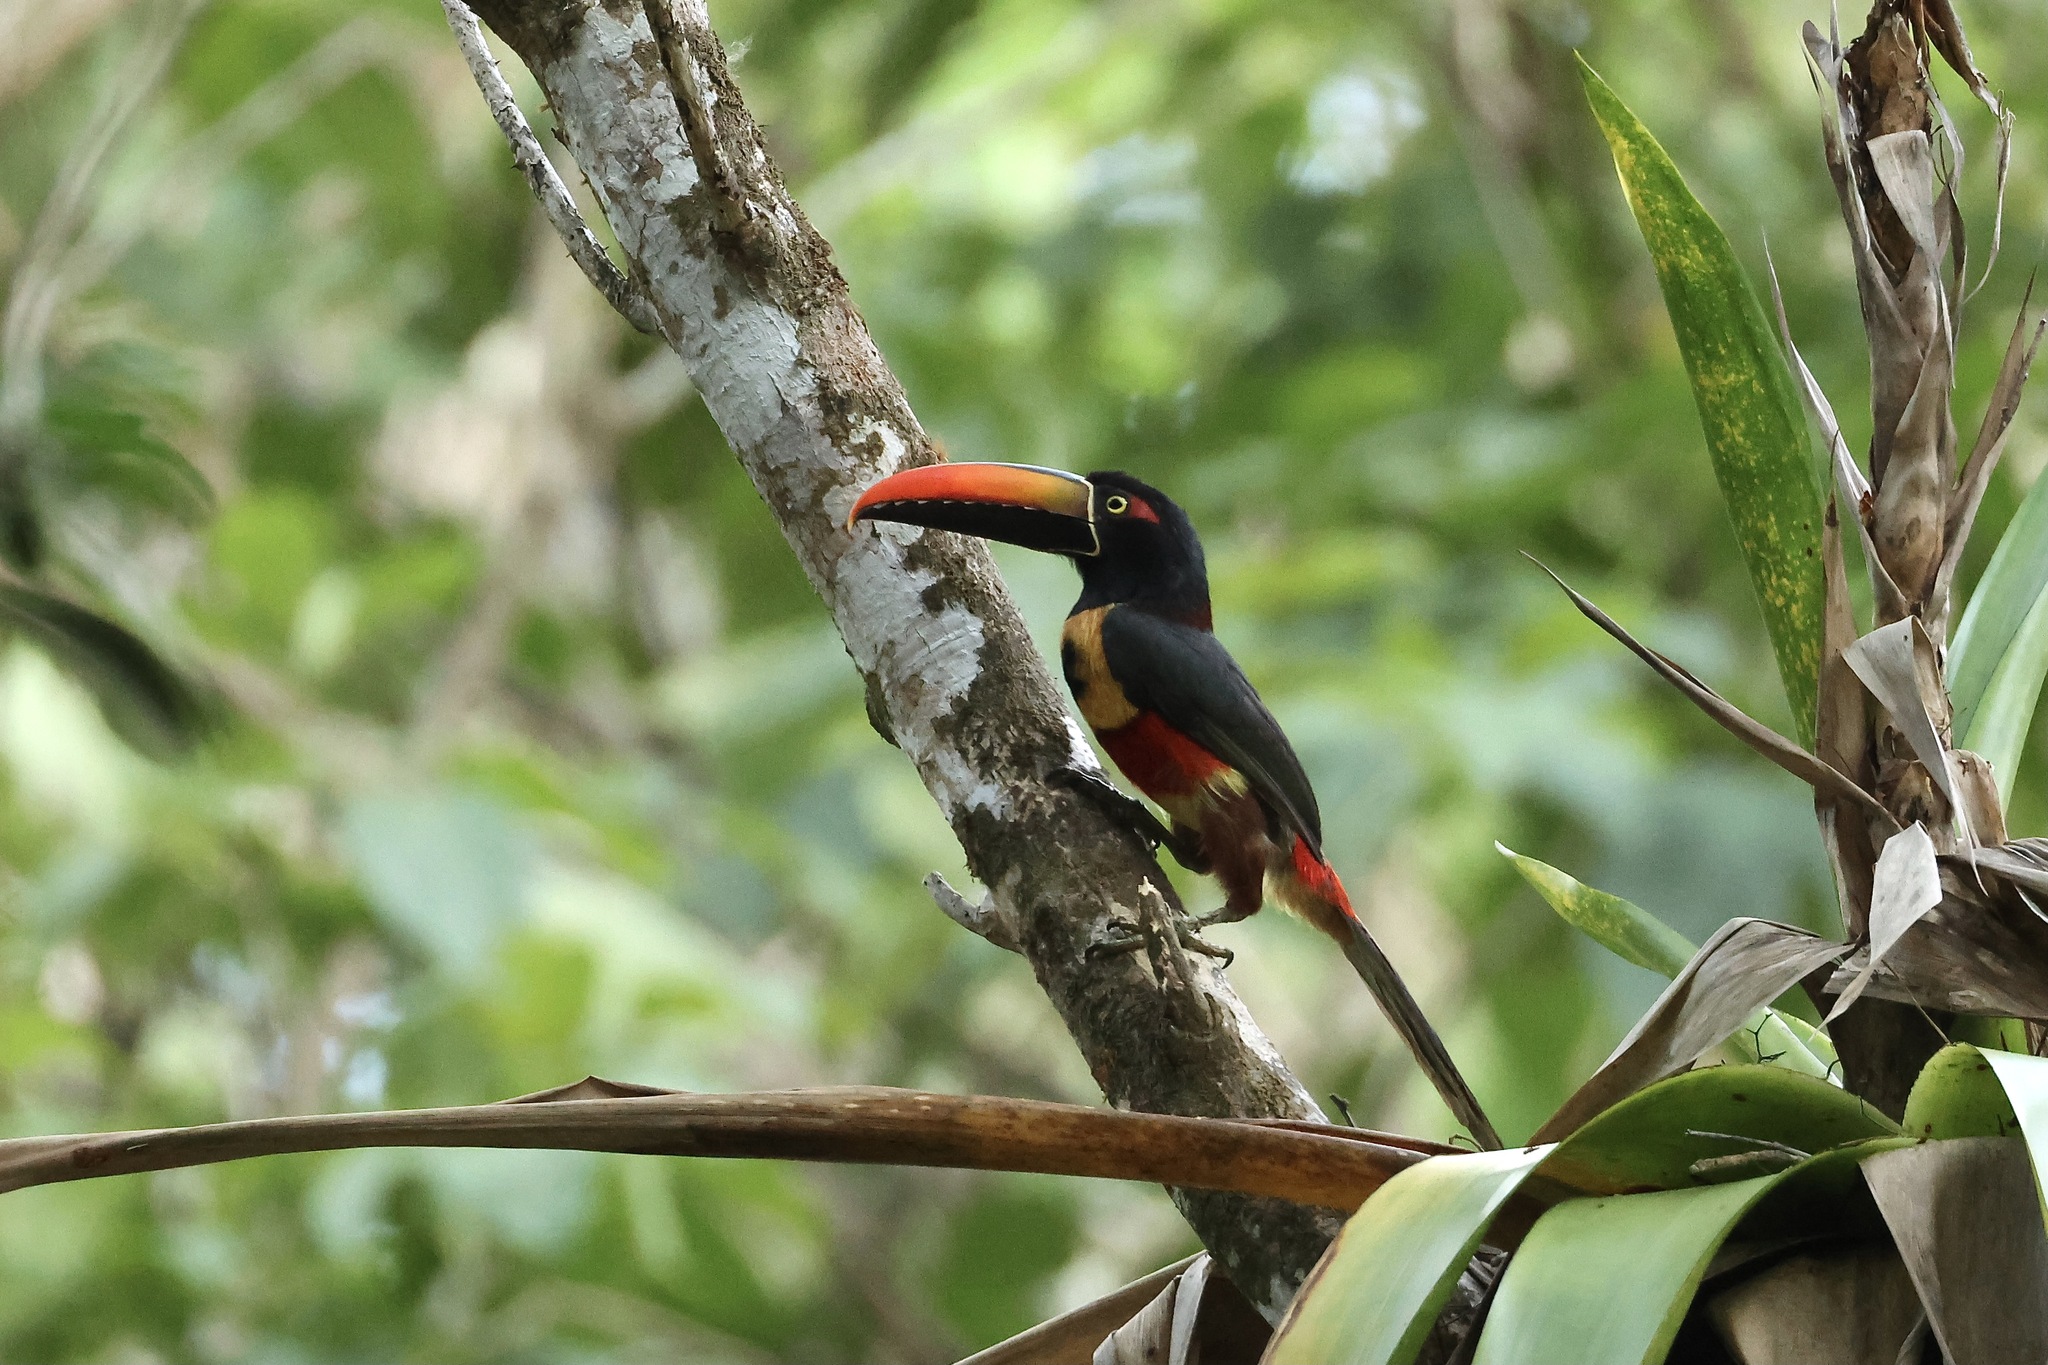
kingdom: Animalia
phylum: Chordata
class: Aves
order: Piciformes
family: Ramphastidae
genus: Pteroglossus
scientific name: Pteroglossus frantzii
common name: Fiery-billed aracari
